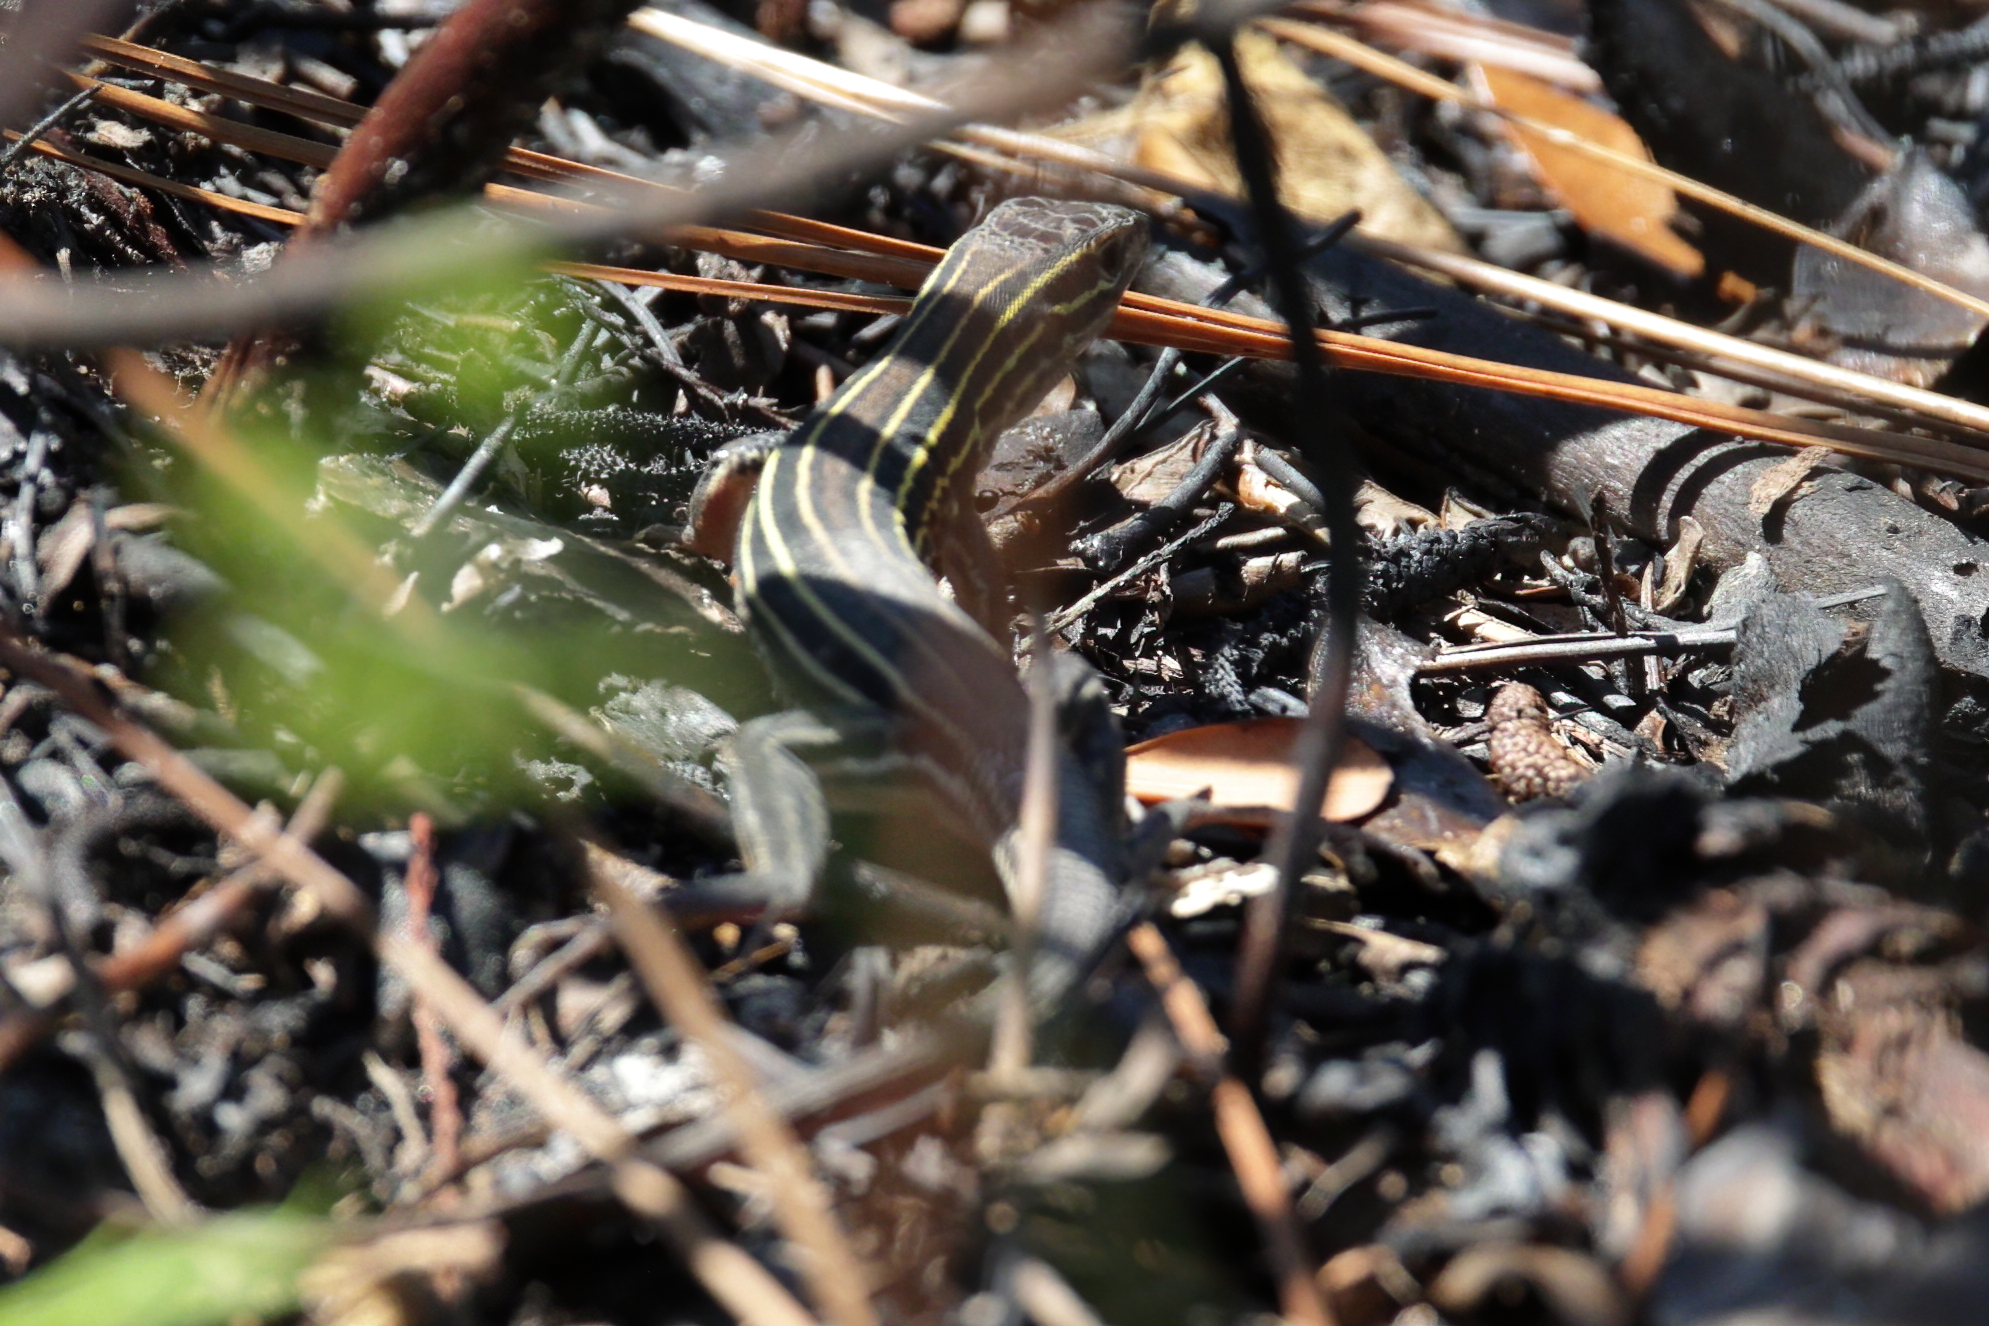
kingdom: Animalia
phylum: Chordata
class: Squamata
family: Teiidae
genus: Aspidoscelis
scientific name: Aspidoscelis sexlineatus
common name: Six-lined racerunner
